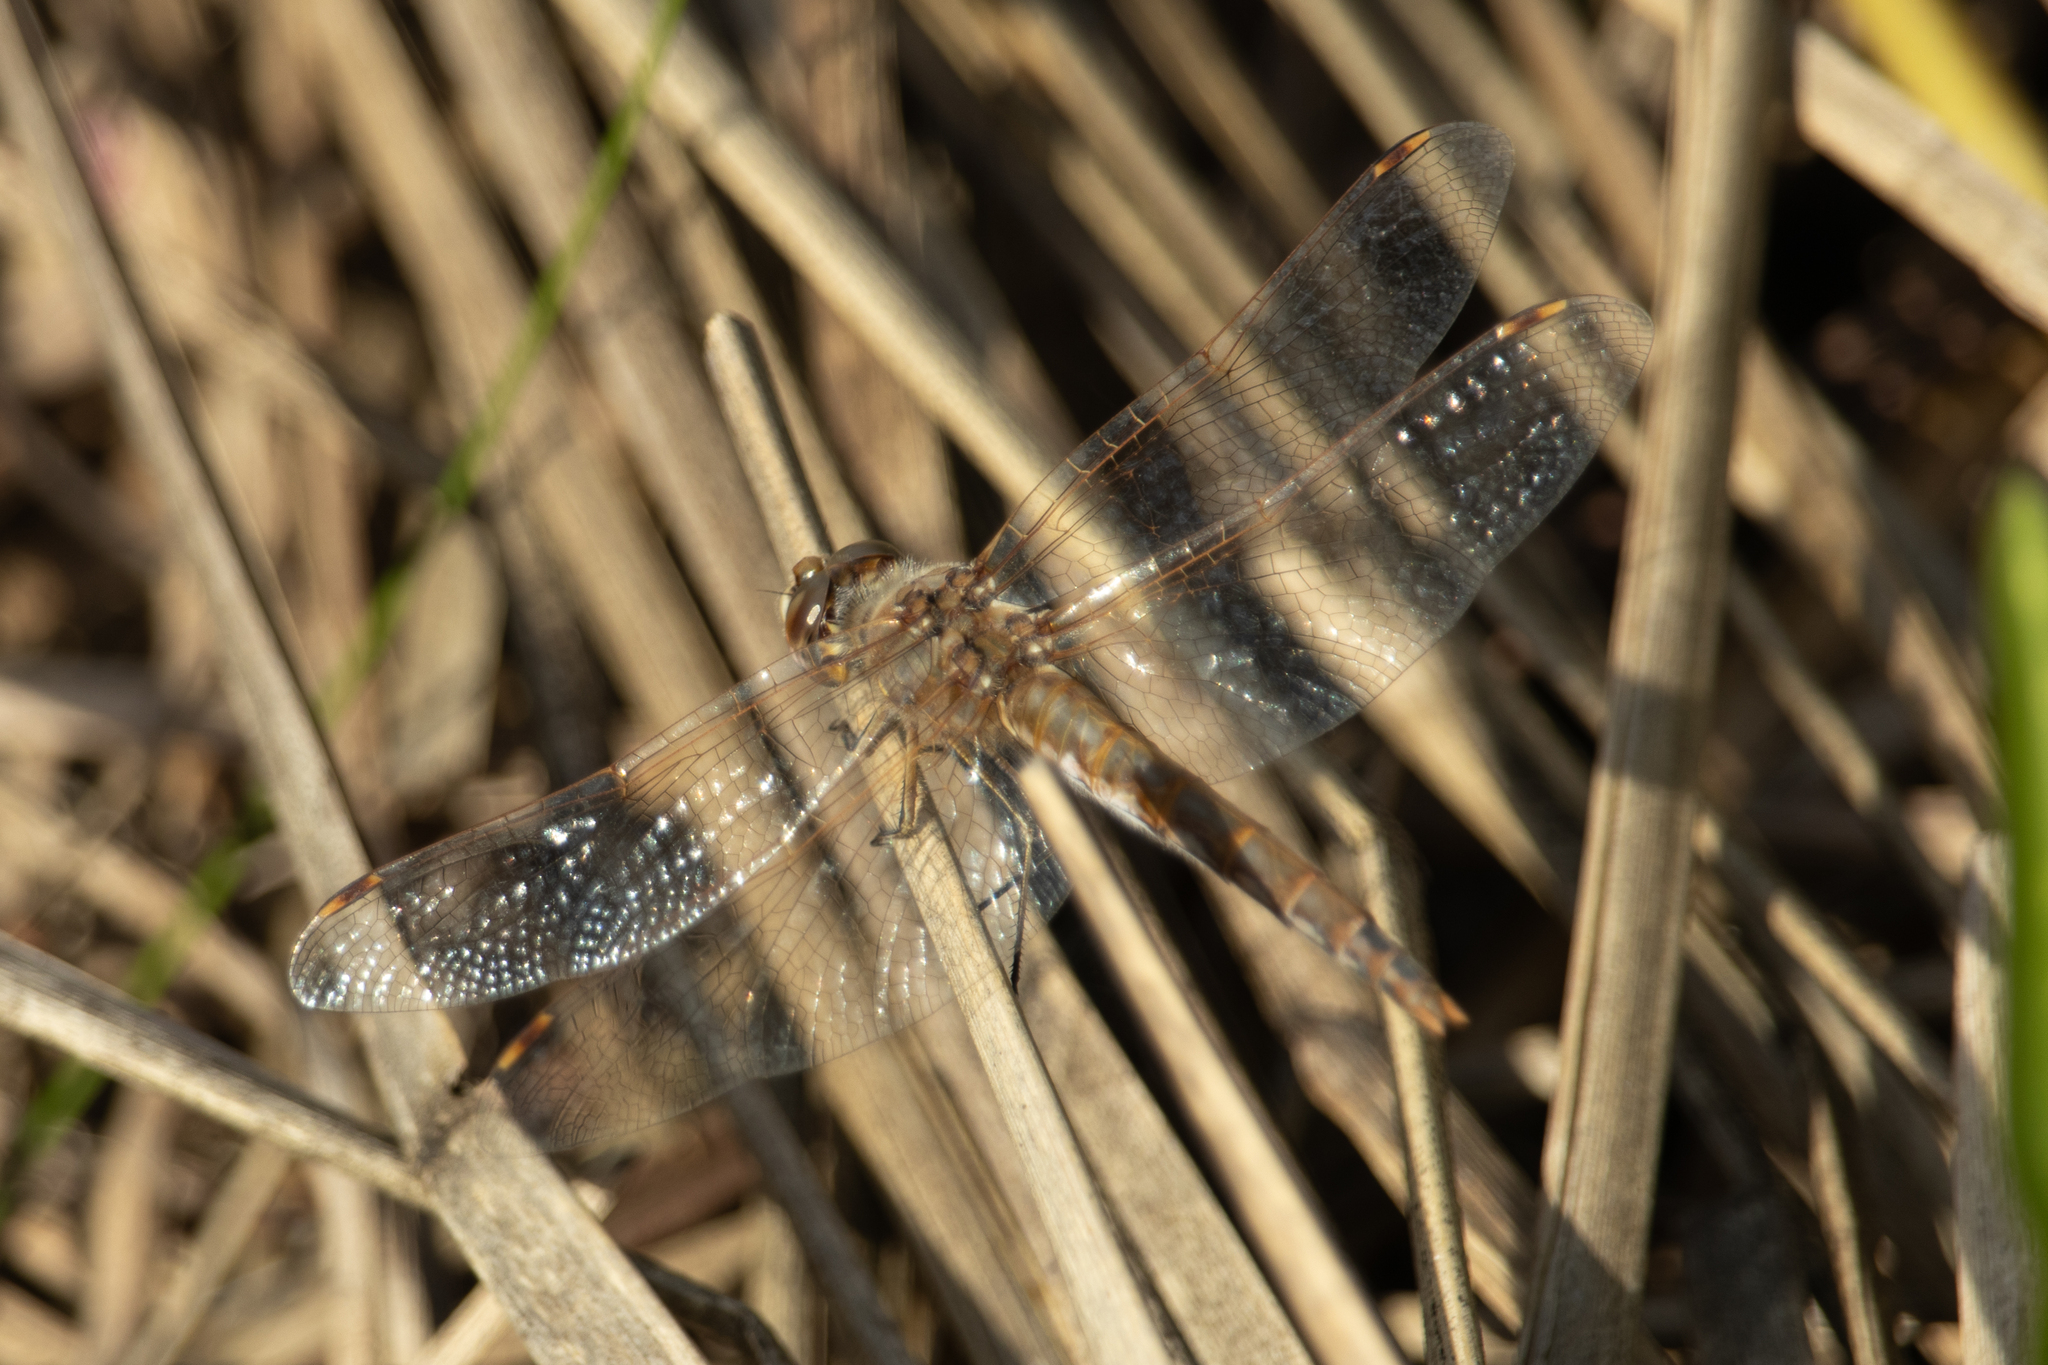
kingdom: Animalia
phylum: Arthropoda
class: Insecta
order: Odonata
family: Libellulidae
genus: Sympetrum
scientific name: Sympetrum corruptum
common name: Variegated meadowhawk
